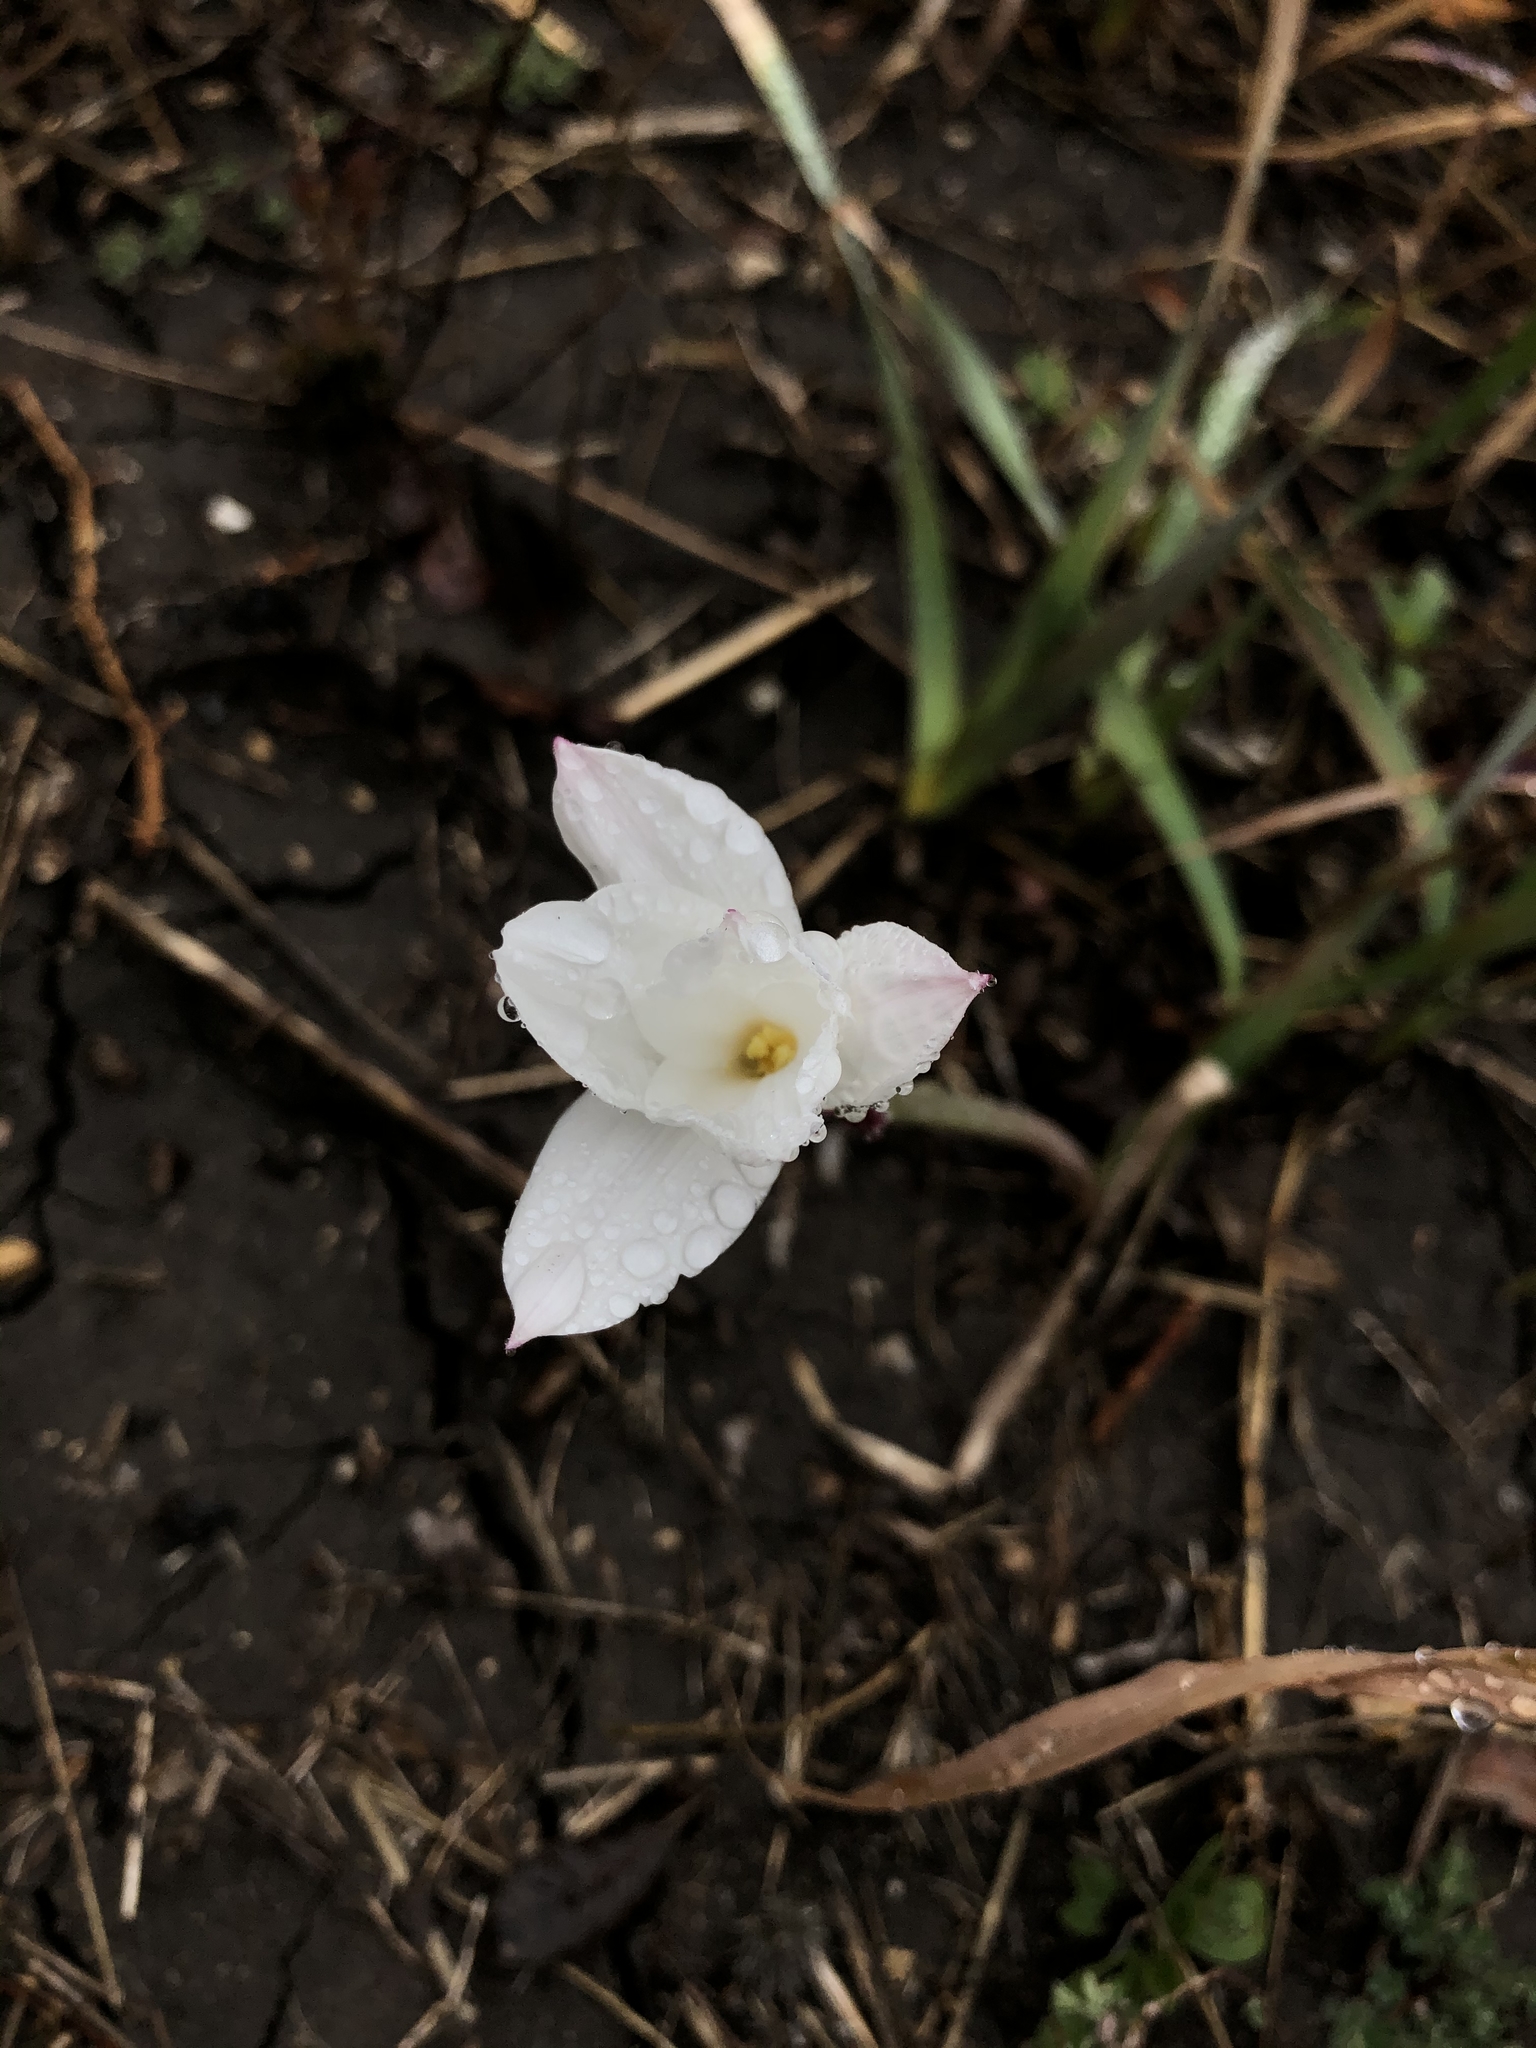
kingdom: Plantae
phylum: Tracheophyta
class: Liliopsida
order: Asparagales
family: Amaryllidaceae
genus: Zephyranthes
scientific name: Zephyranthes drummondii
